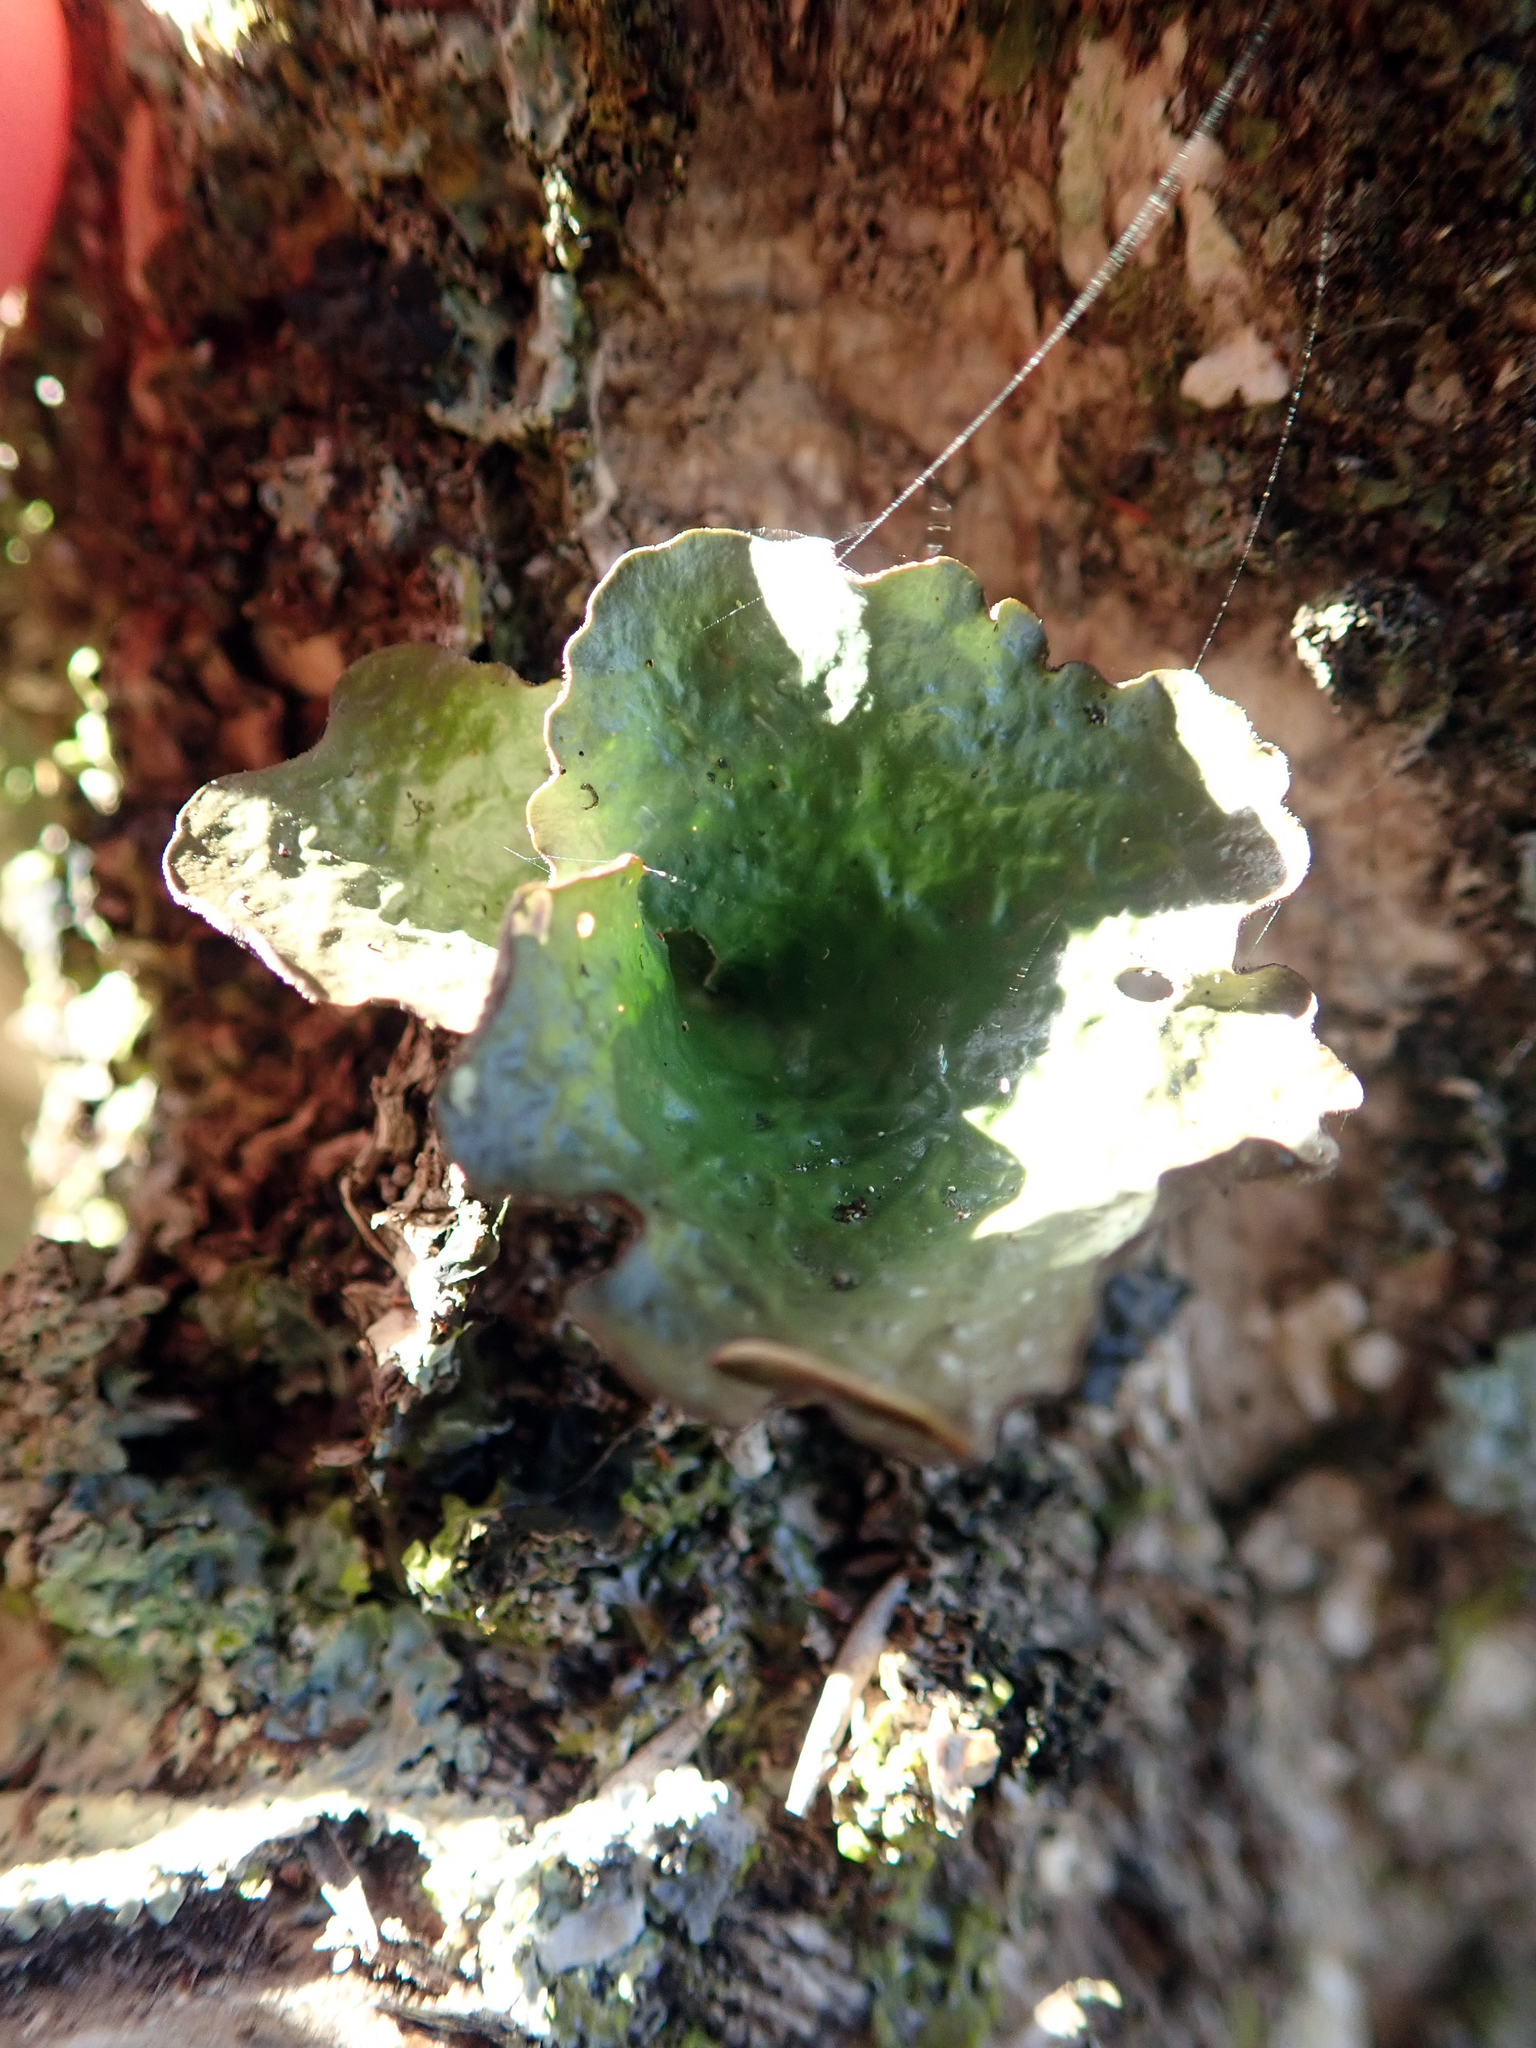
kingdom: Fungi
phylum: Ascomycota
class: Lecanoromycetes
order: Peltigerales
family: Lobariaceae
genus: Sticta
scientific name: Sticta latifrons
